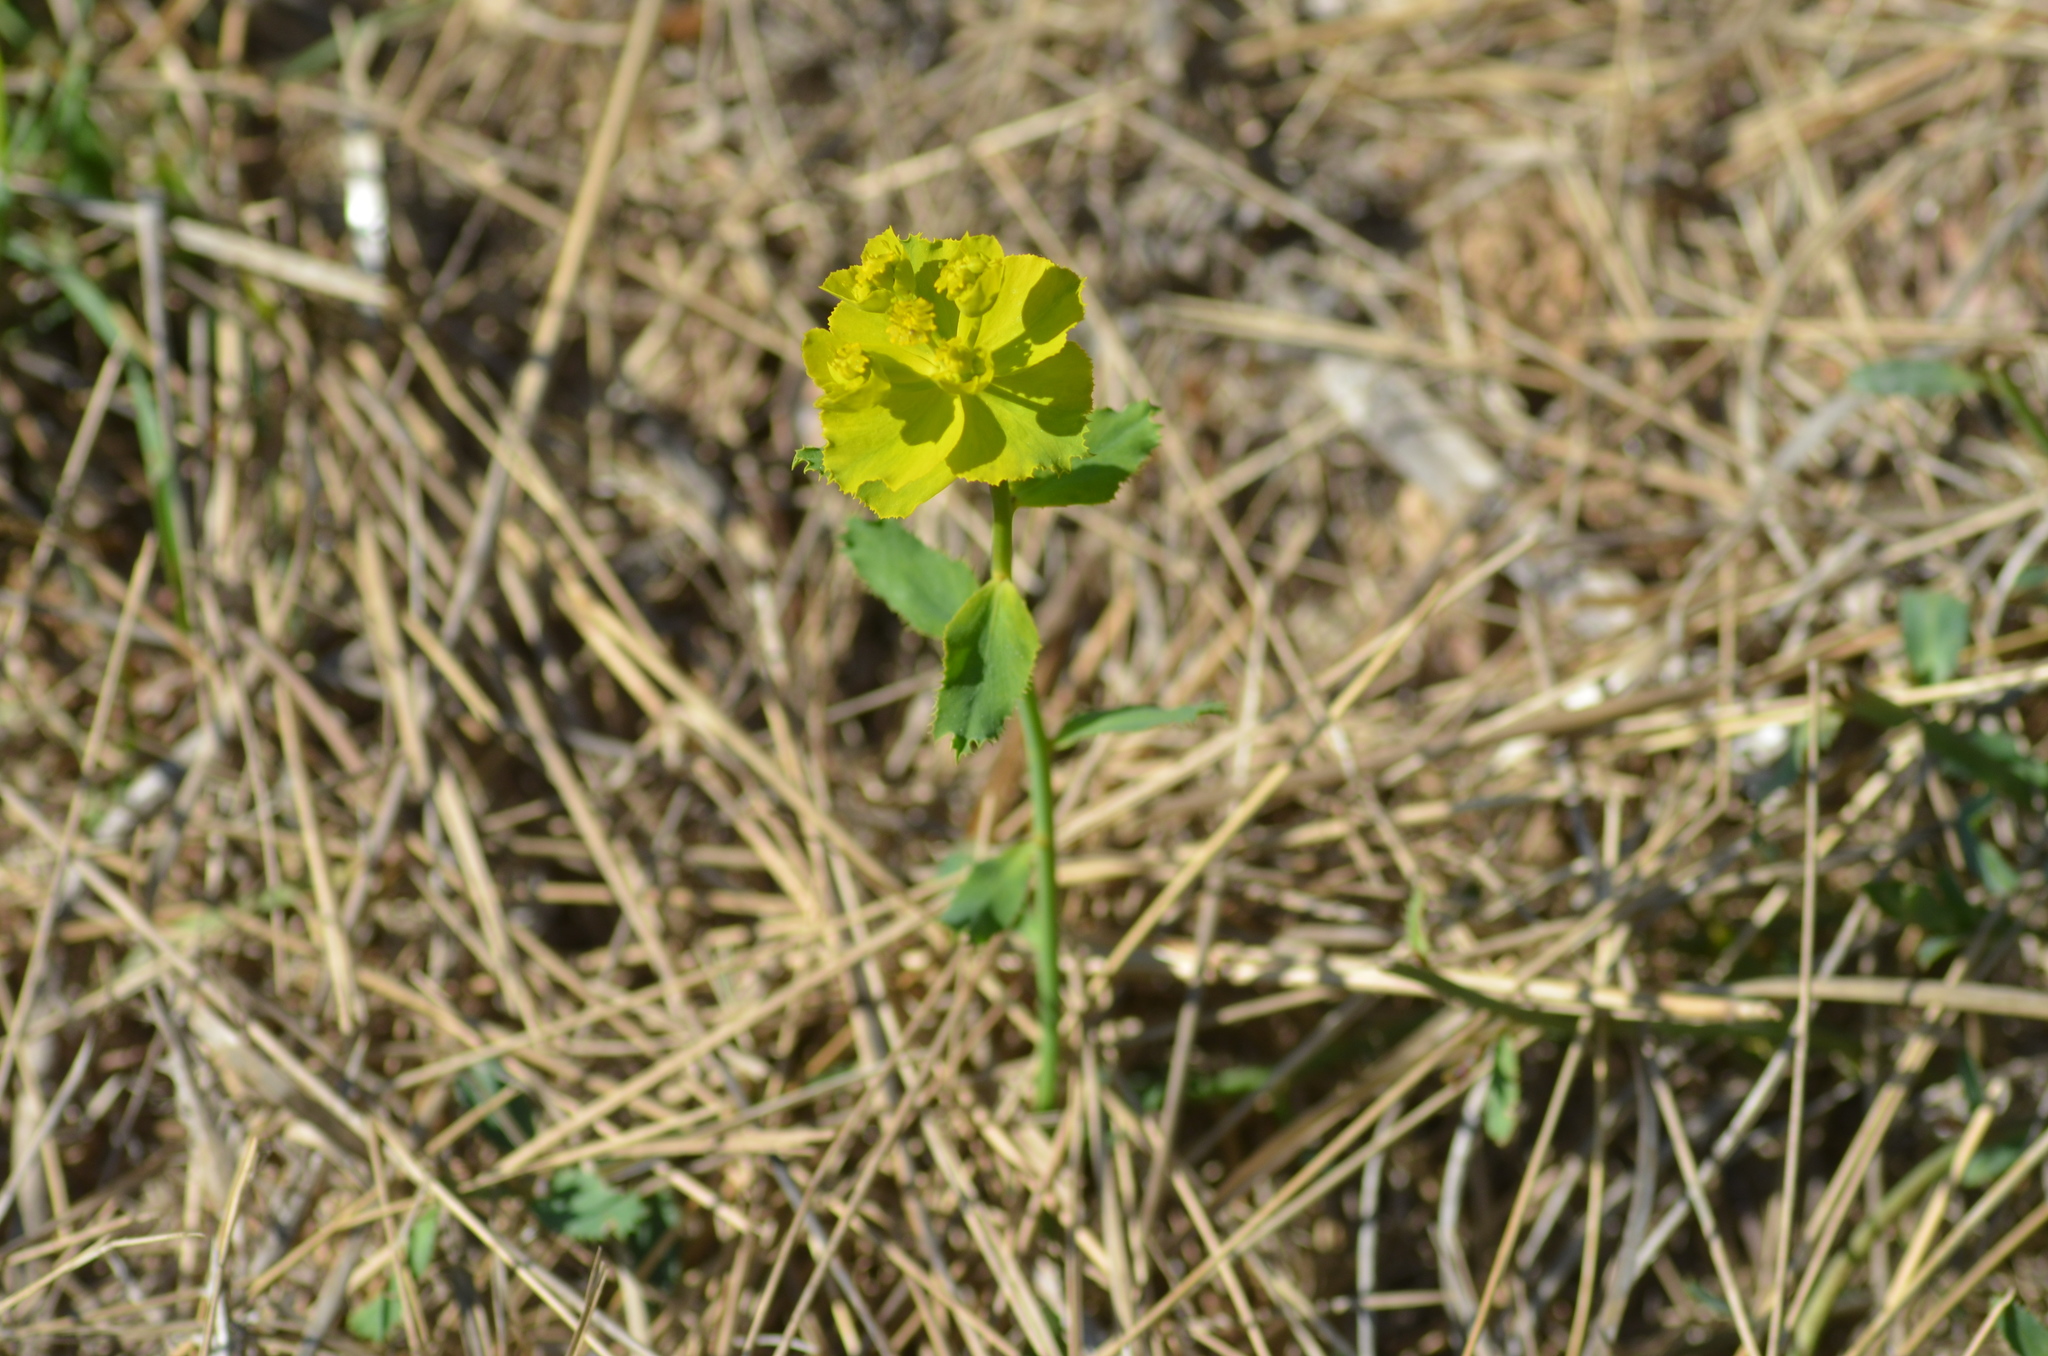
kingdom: Plantae
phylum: Tracheophyta
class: Magnoliopsida
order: Malpighiales
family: Euphorbiaceae
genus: Euphorbia
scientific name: Euphorbia serrata
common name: Serrate spurge
